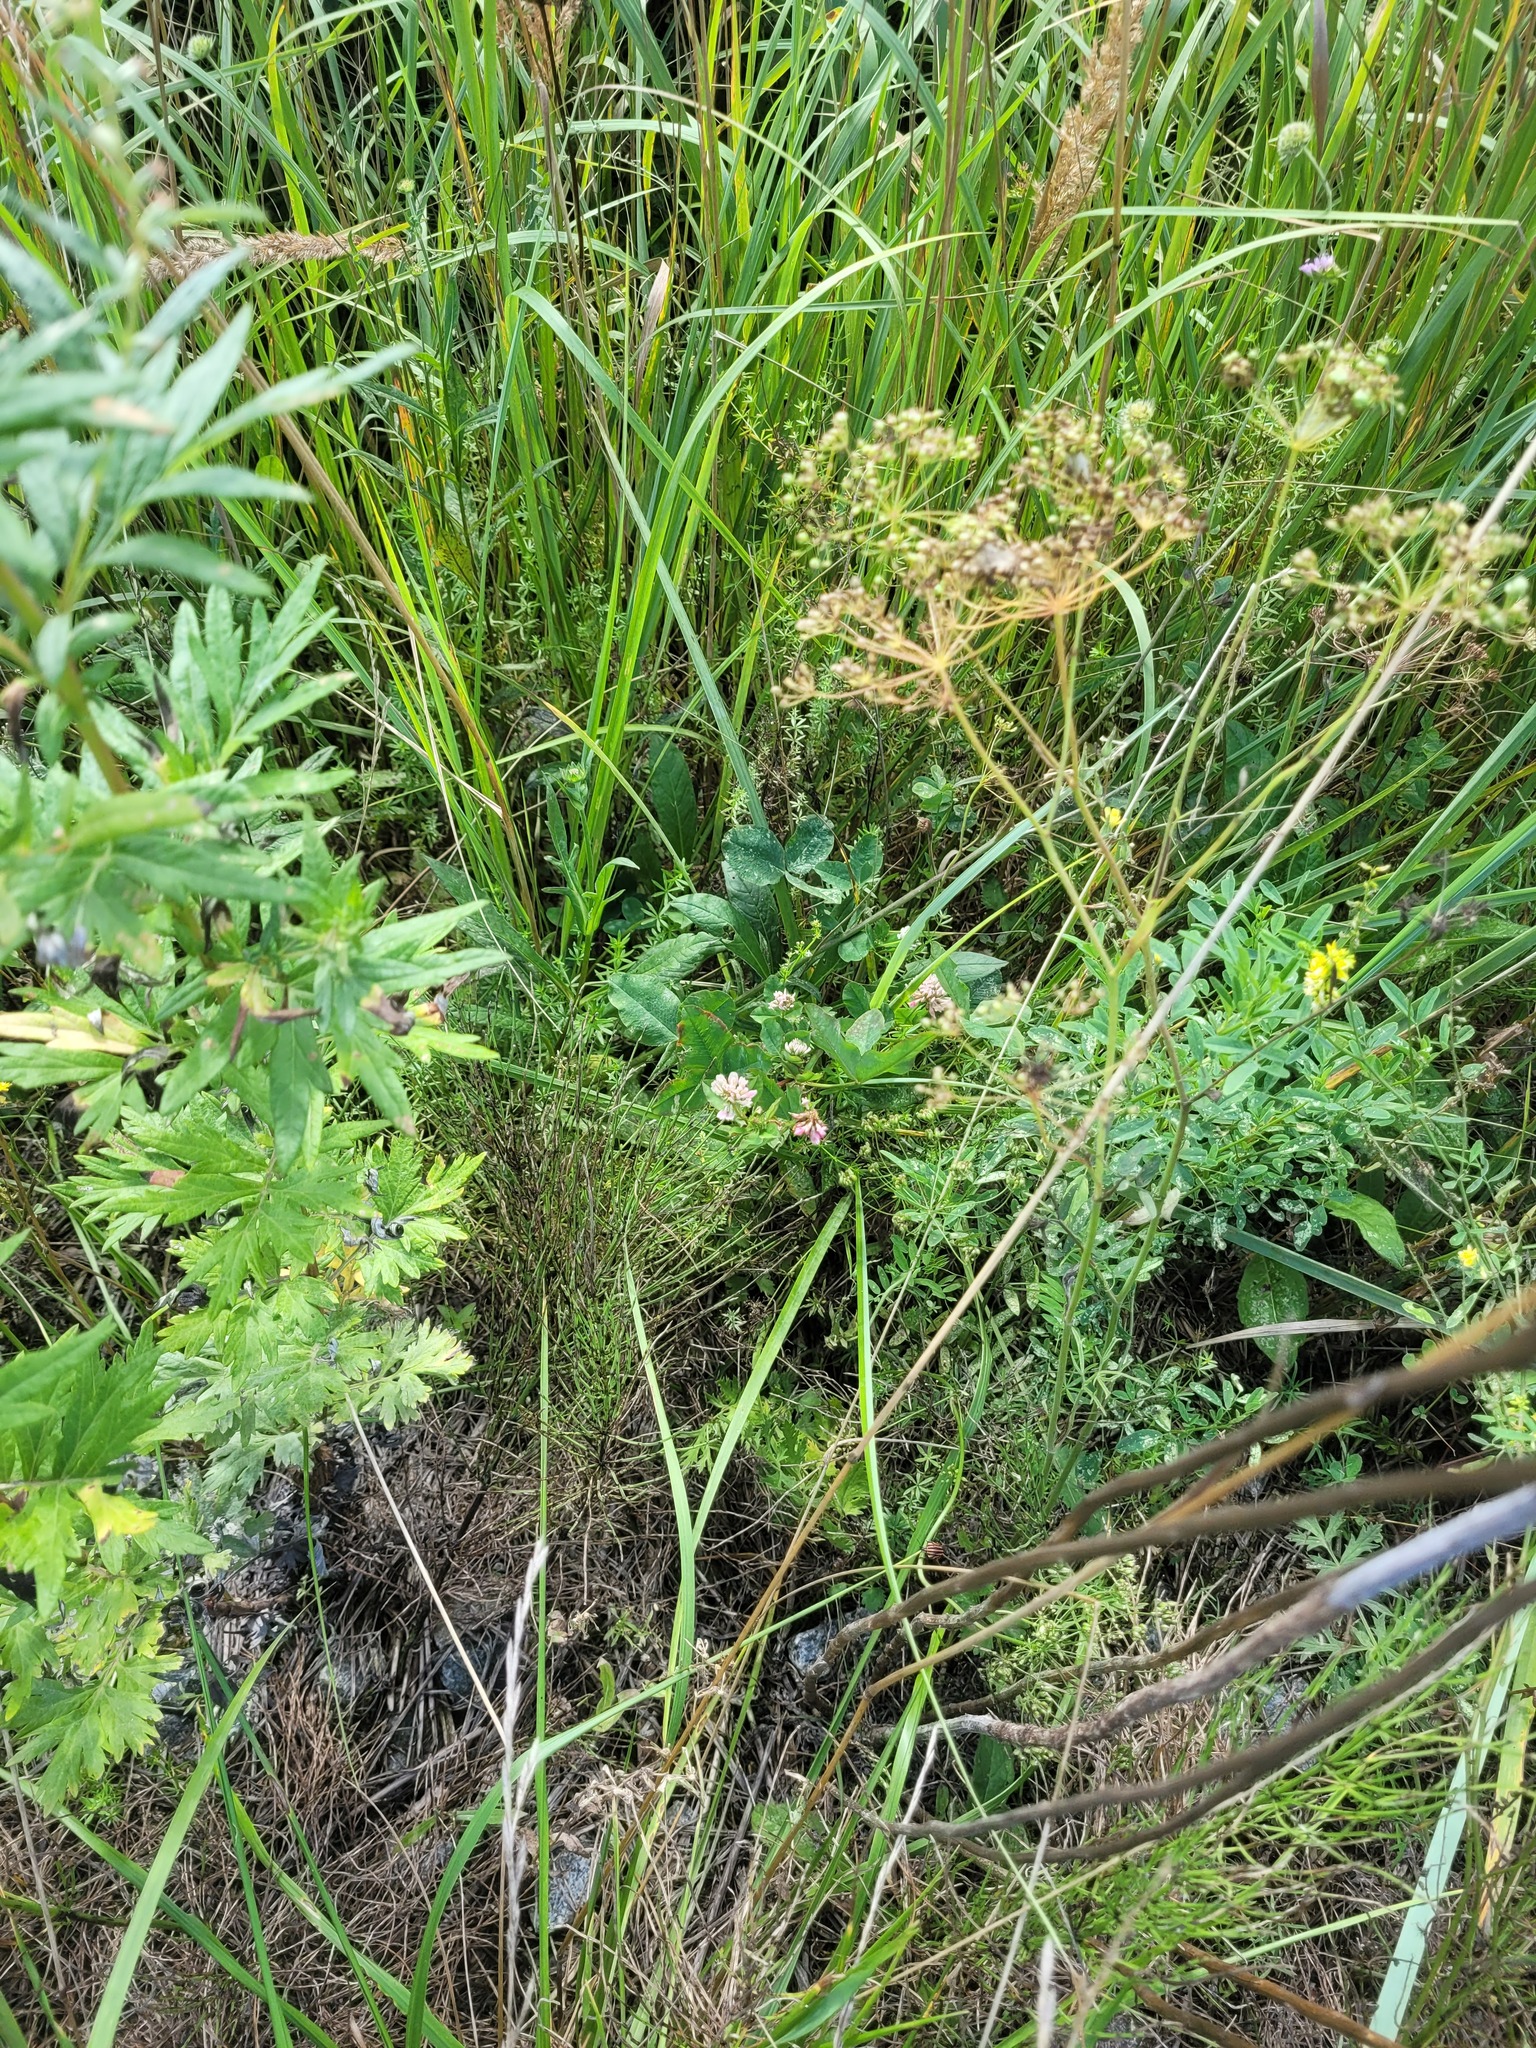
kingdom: Plantae
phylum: Tracheophyta
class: Magnoliopsida
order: Fabales
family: Fabaceae
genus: Trifolium
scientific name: Trifolium hybridum
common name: Alsike clover
